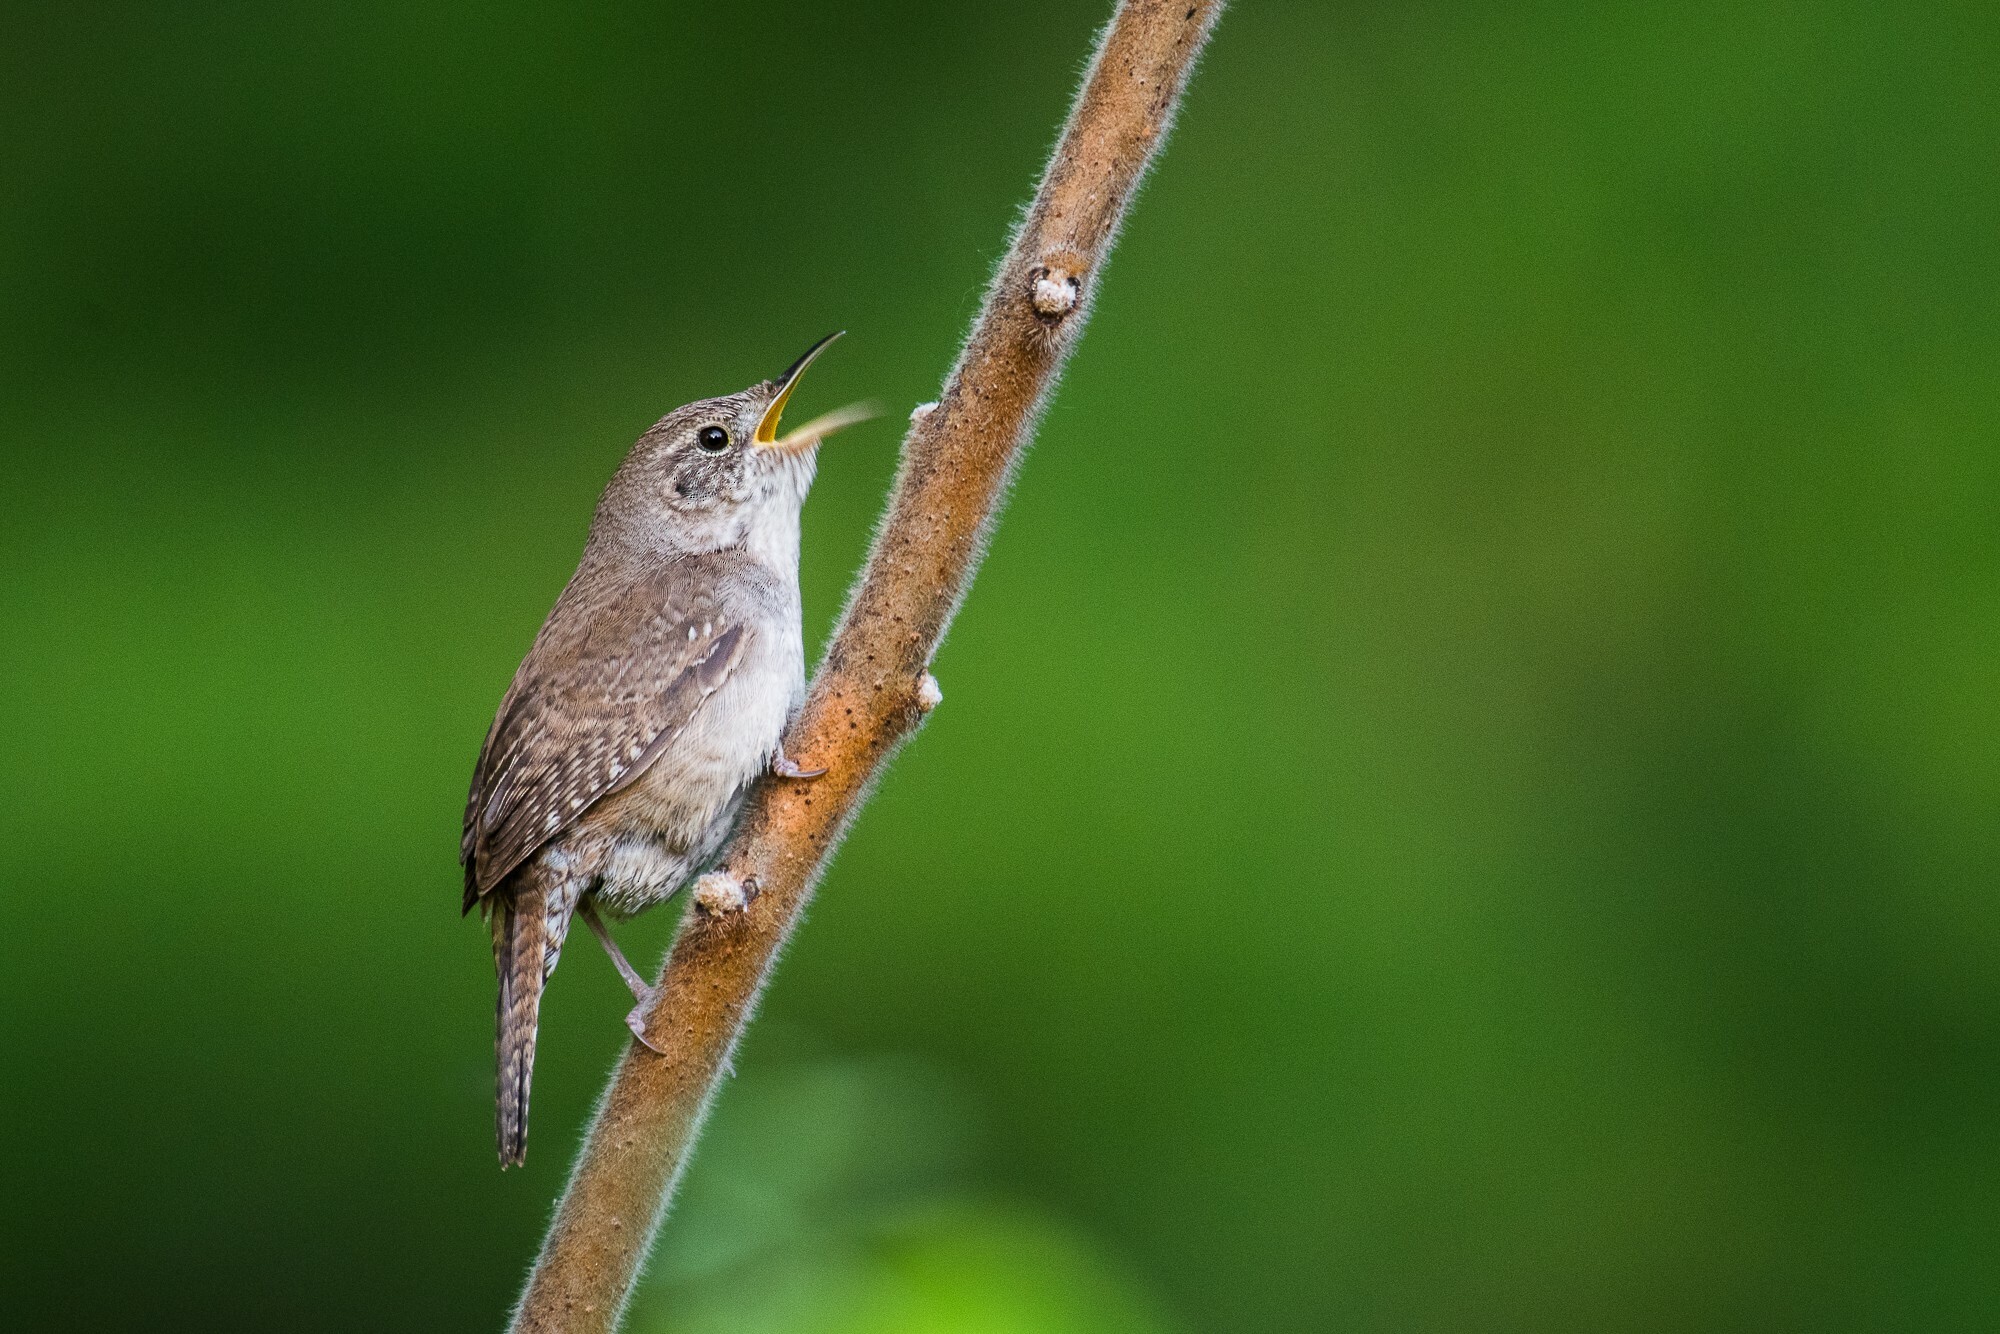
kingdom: Animalia
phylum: Chordata
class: Aves
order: Passeriformes
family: Troglodytidae
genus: Troglodytes
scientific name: Troglodytes aedon
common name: House wren
